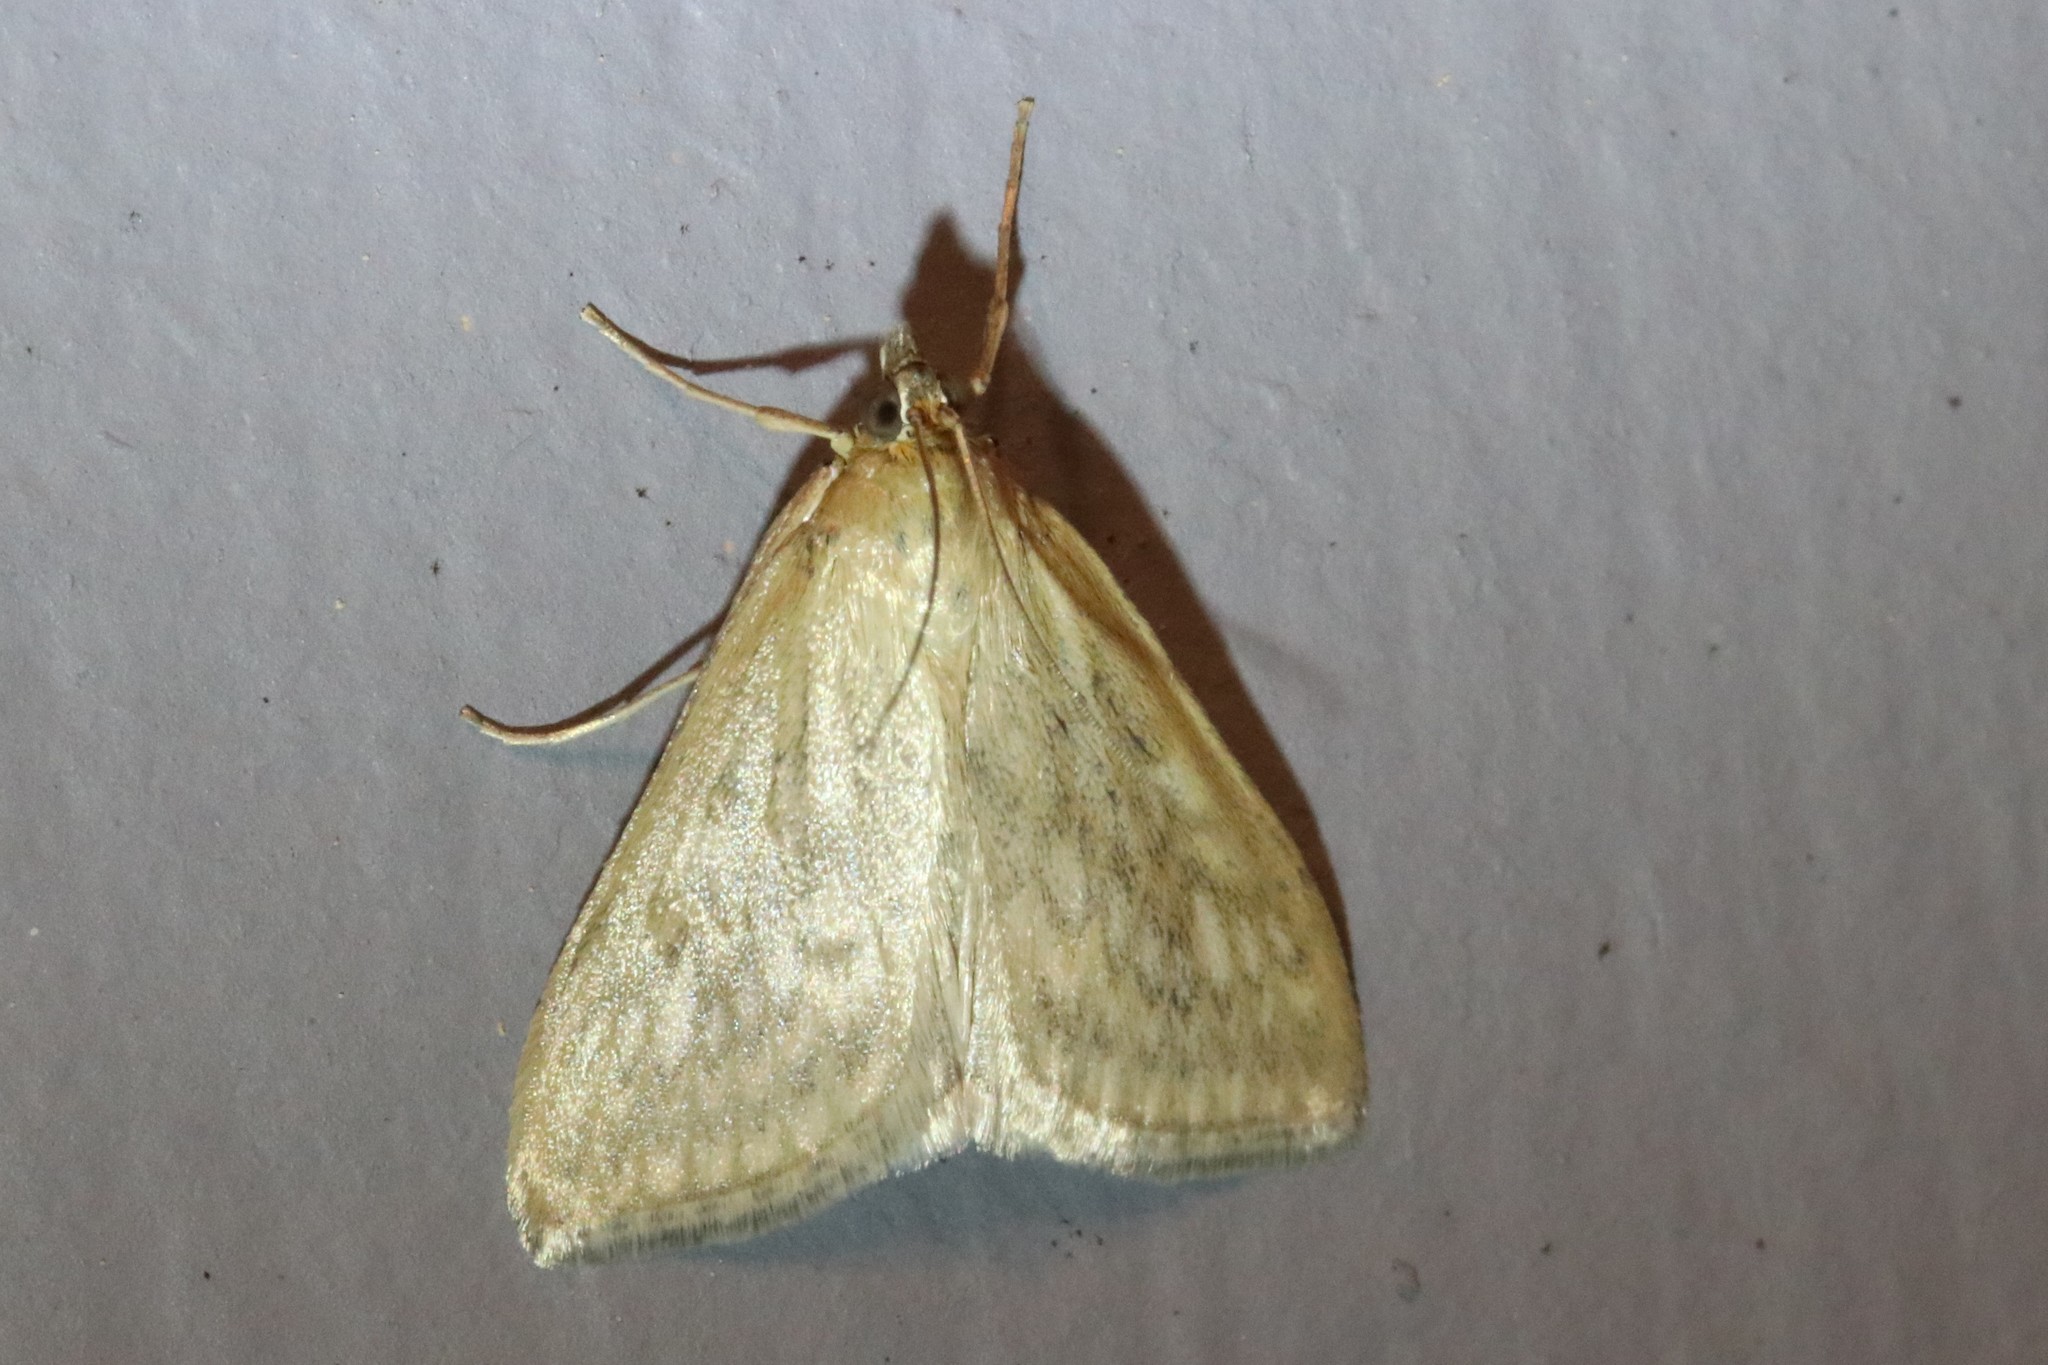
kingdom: Animalia
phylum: Arthropoda
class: Insecta
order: Lepidoptera
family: Crambidae
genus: Sitochroa
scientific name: Sitochroa chortalis
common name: Dimorphic sitochroa moth
